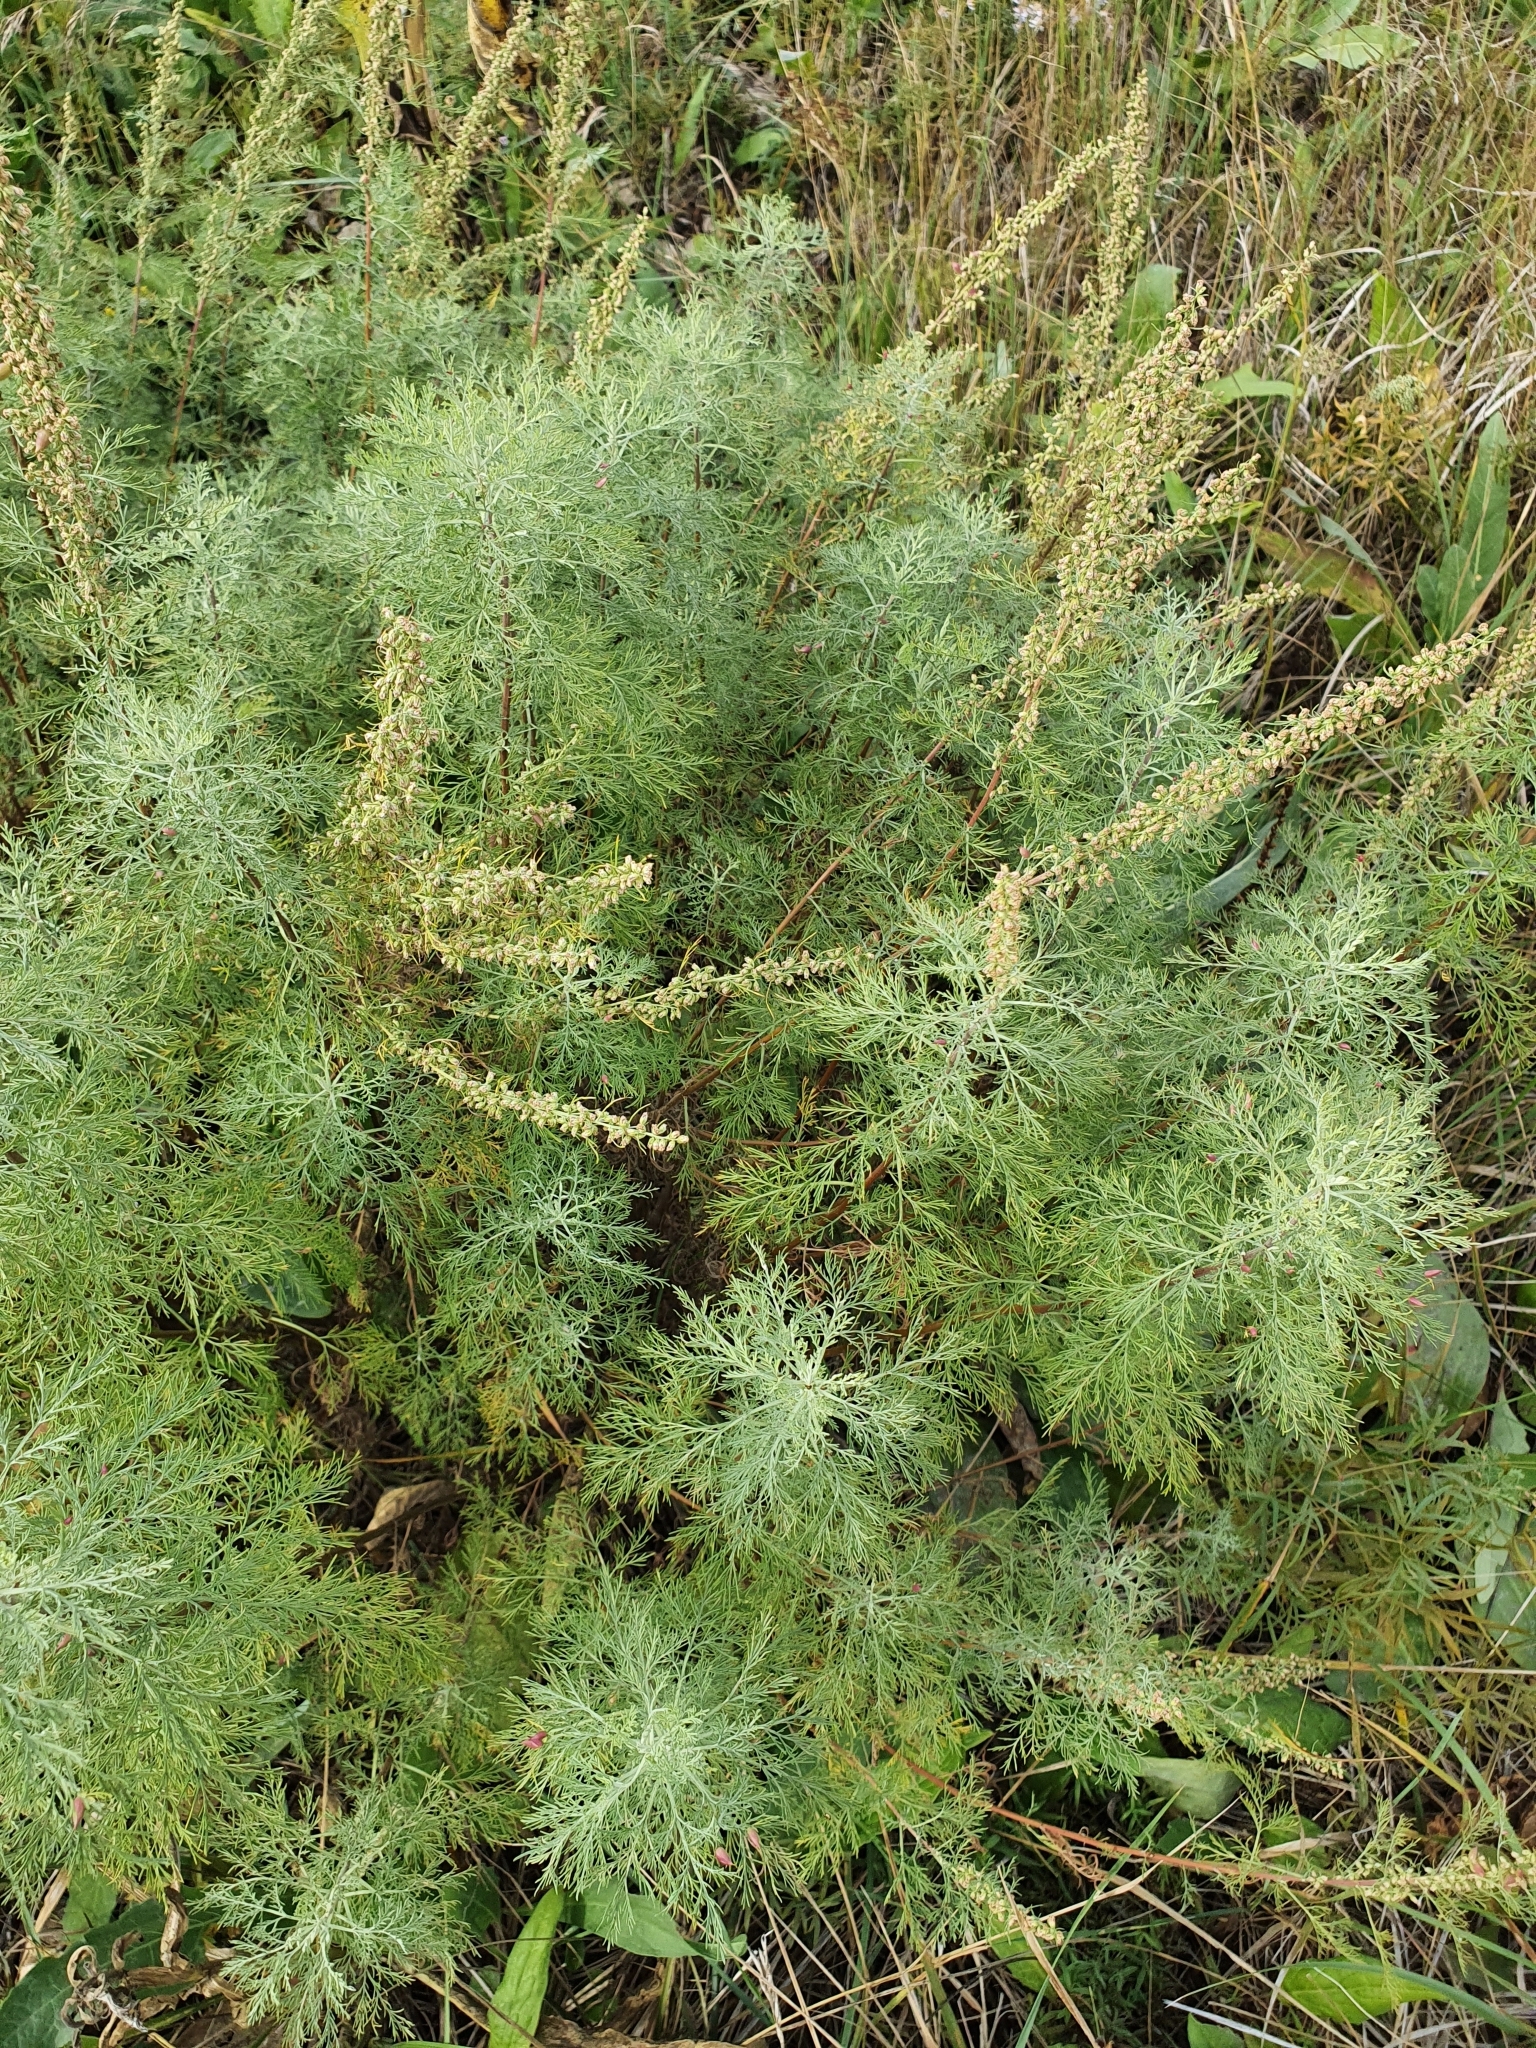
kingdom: Plantae
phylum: Tracheophyta
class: Magnoliopsida
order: Asterales
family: Asteraceae
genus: Artemisia
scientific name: Artemisia abrotanum
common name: Southernwood
